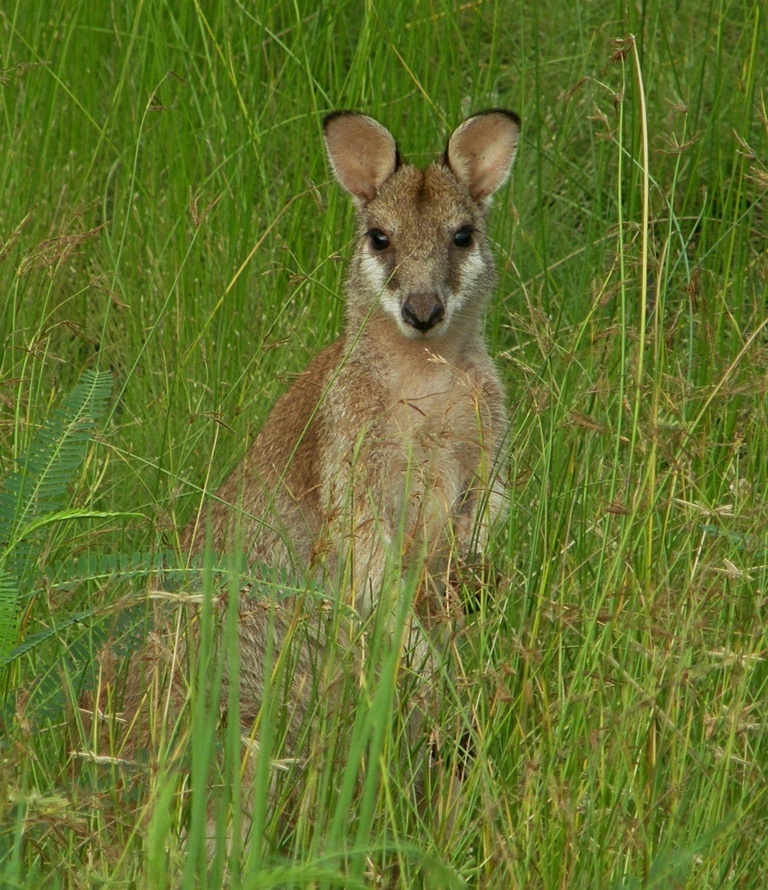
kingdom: Animalia
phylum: Chordata
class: Mammalia
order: Diprotodontia
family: Macropodidae
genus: Macropus
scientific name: Macropus agilis
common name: Agile wallaby
